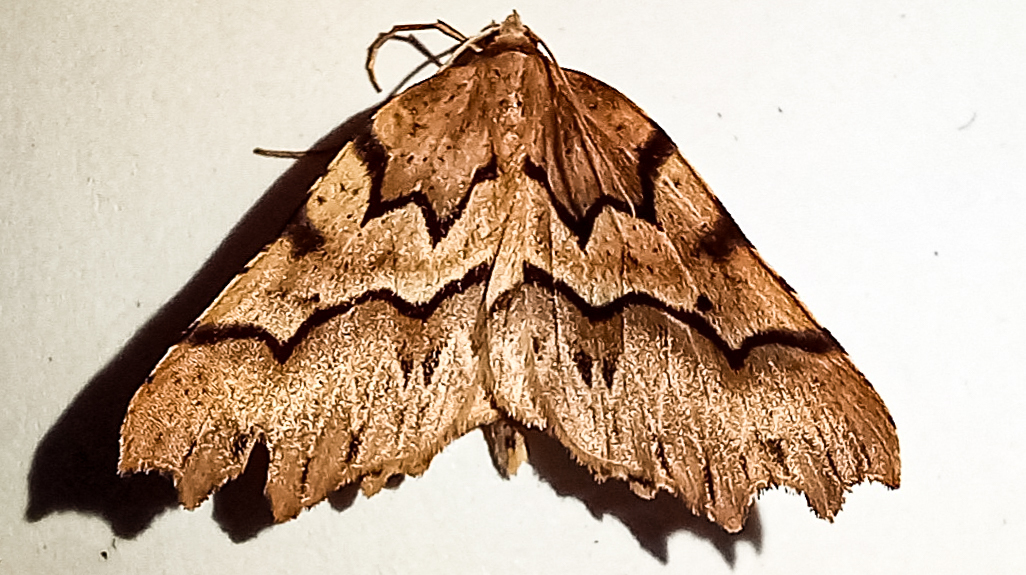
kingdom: Animalia
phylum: Arthropoda
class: Insecta
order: Lepidoptera
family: Geometridae
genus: Ischalis
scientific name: Ischalis fortinata
